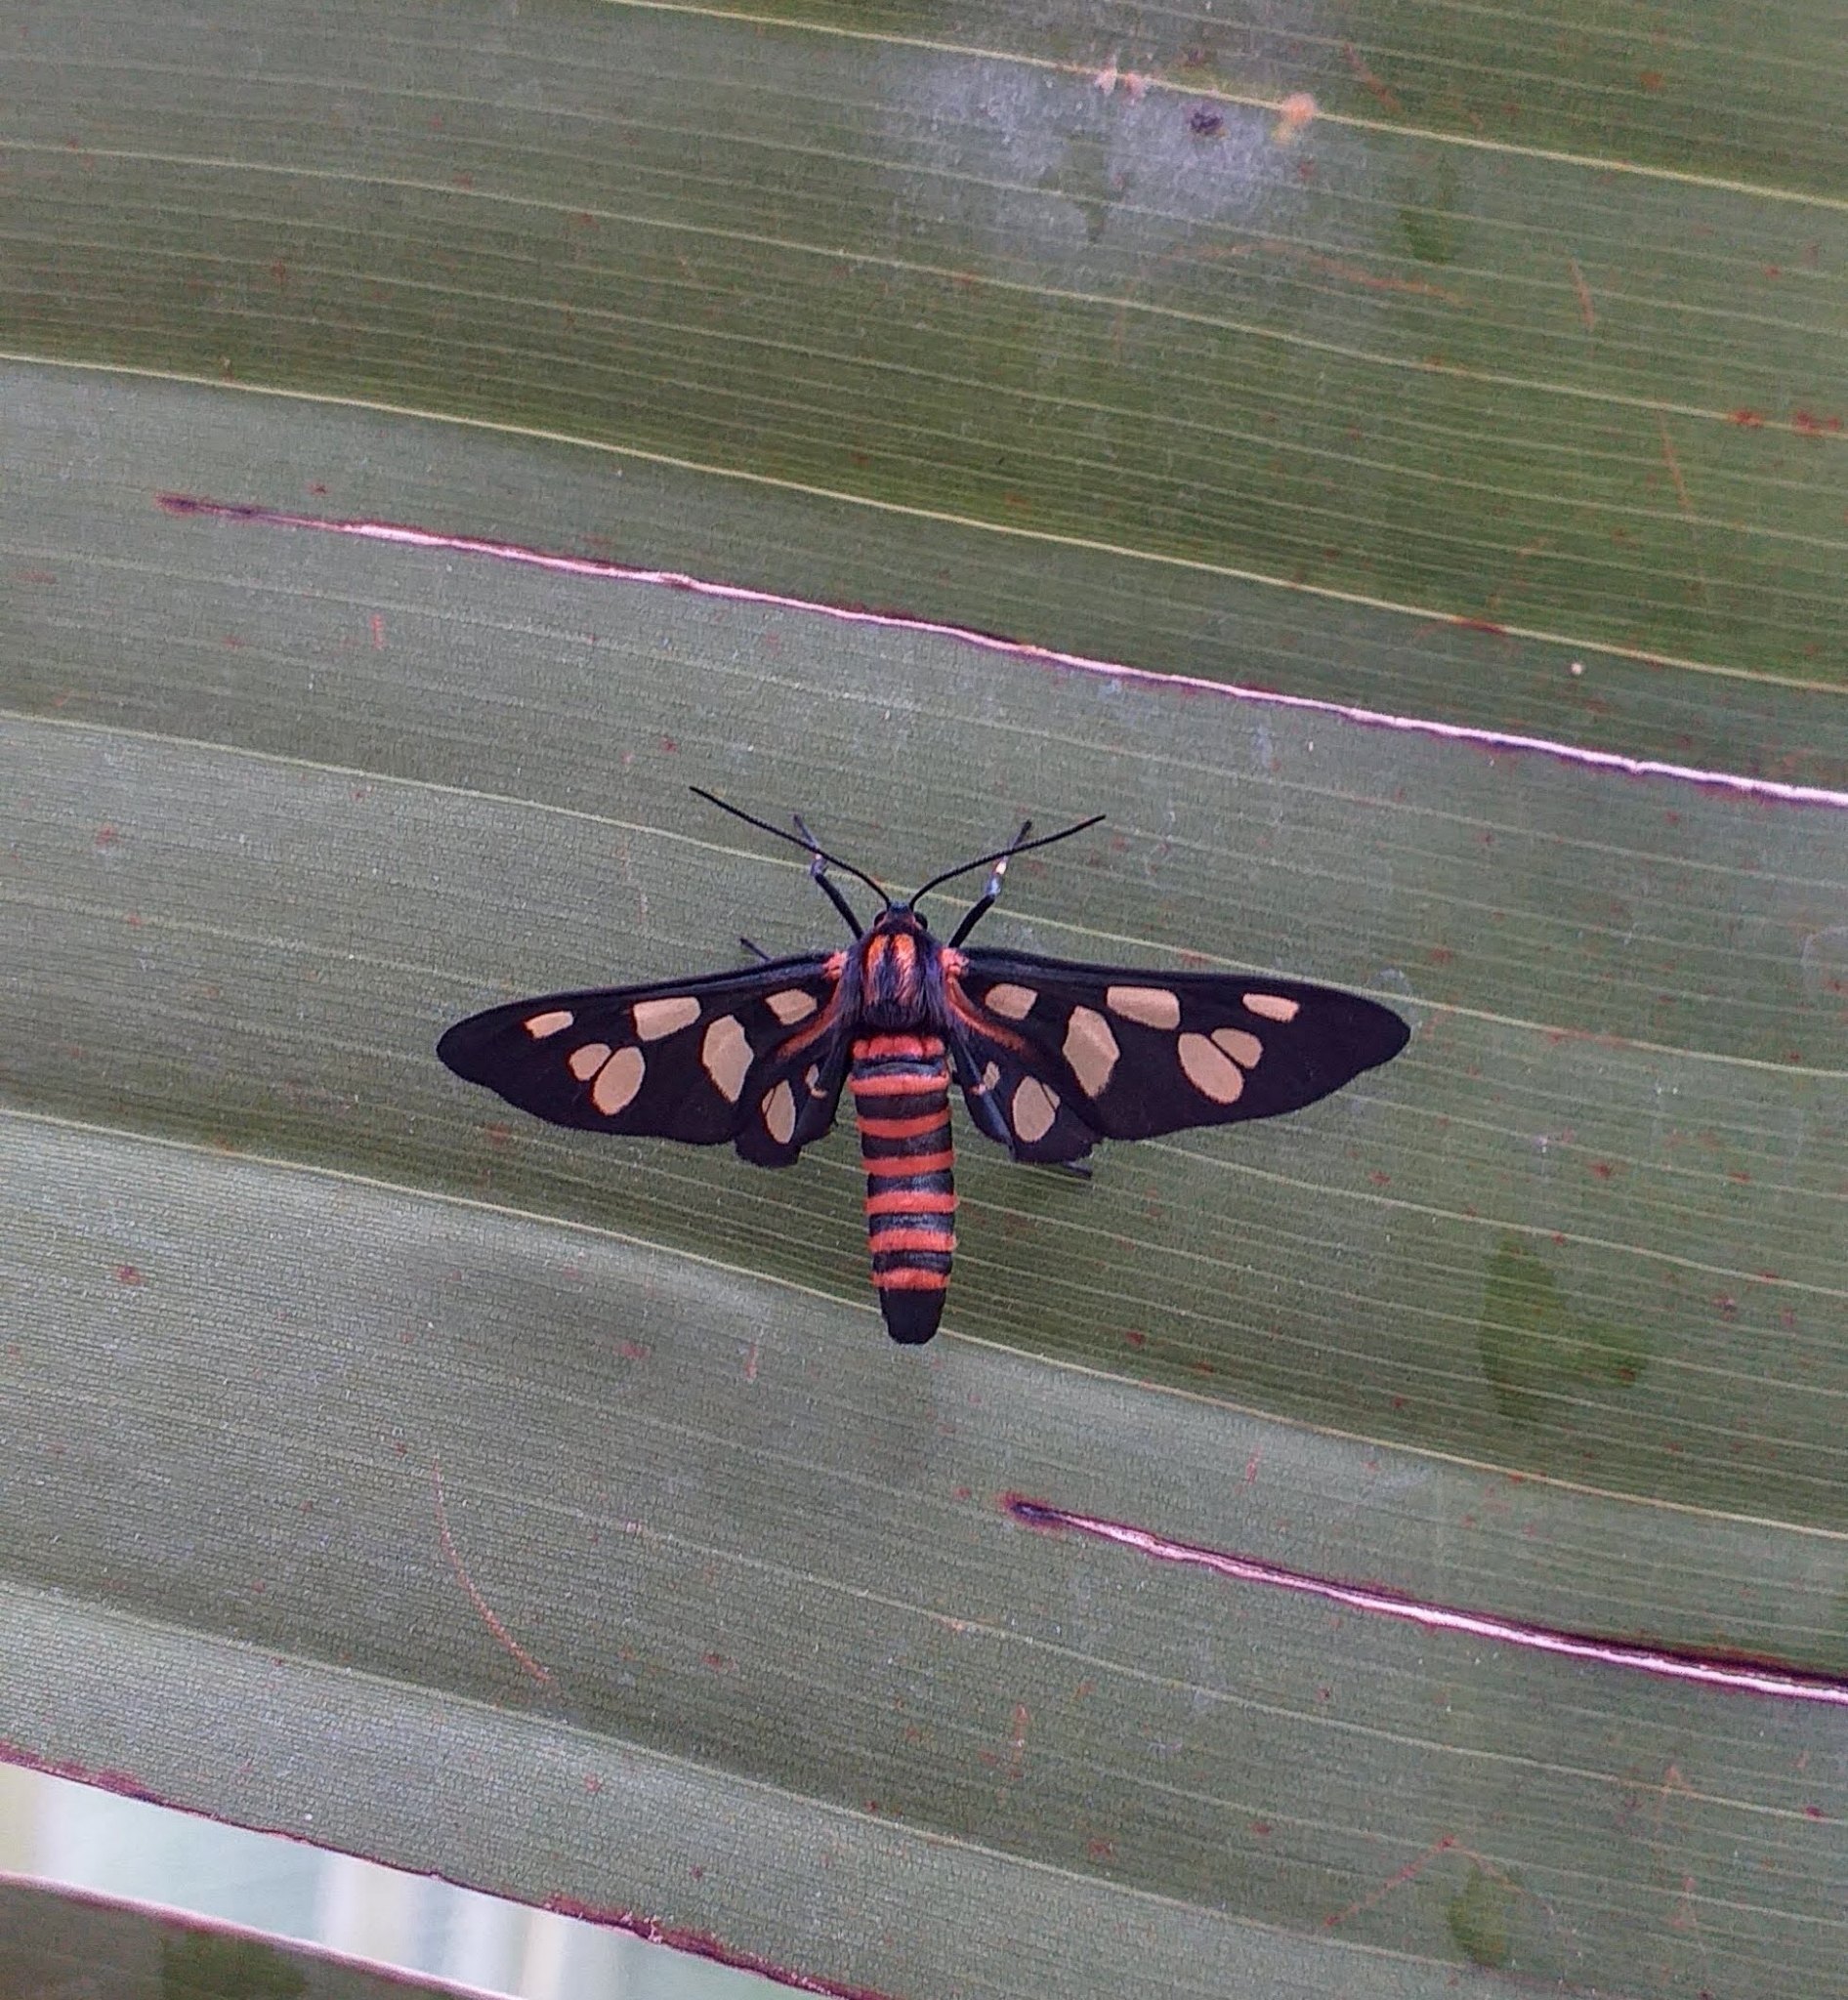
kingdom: Animalia
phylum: Arthropoda
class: Insecta
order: Lepidoptera
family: Erebidae
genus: Amata
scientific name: Amata passalis
